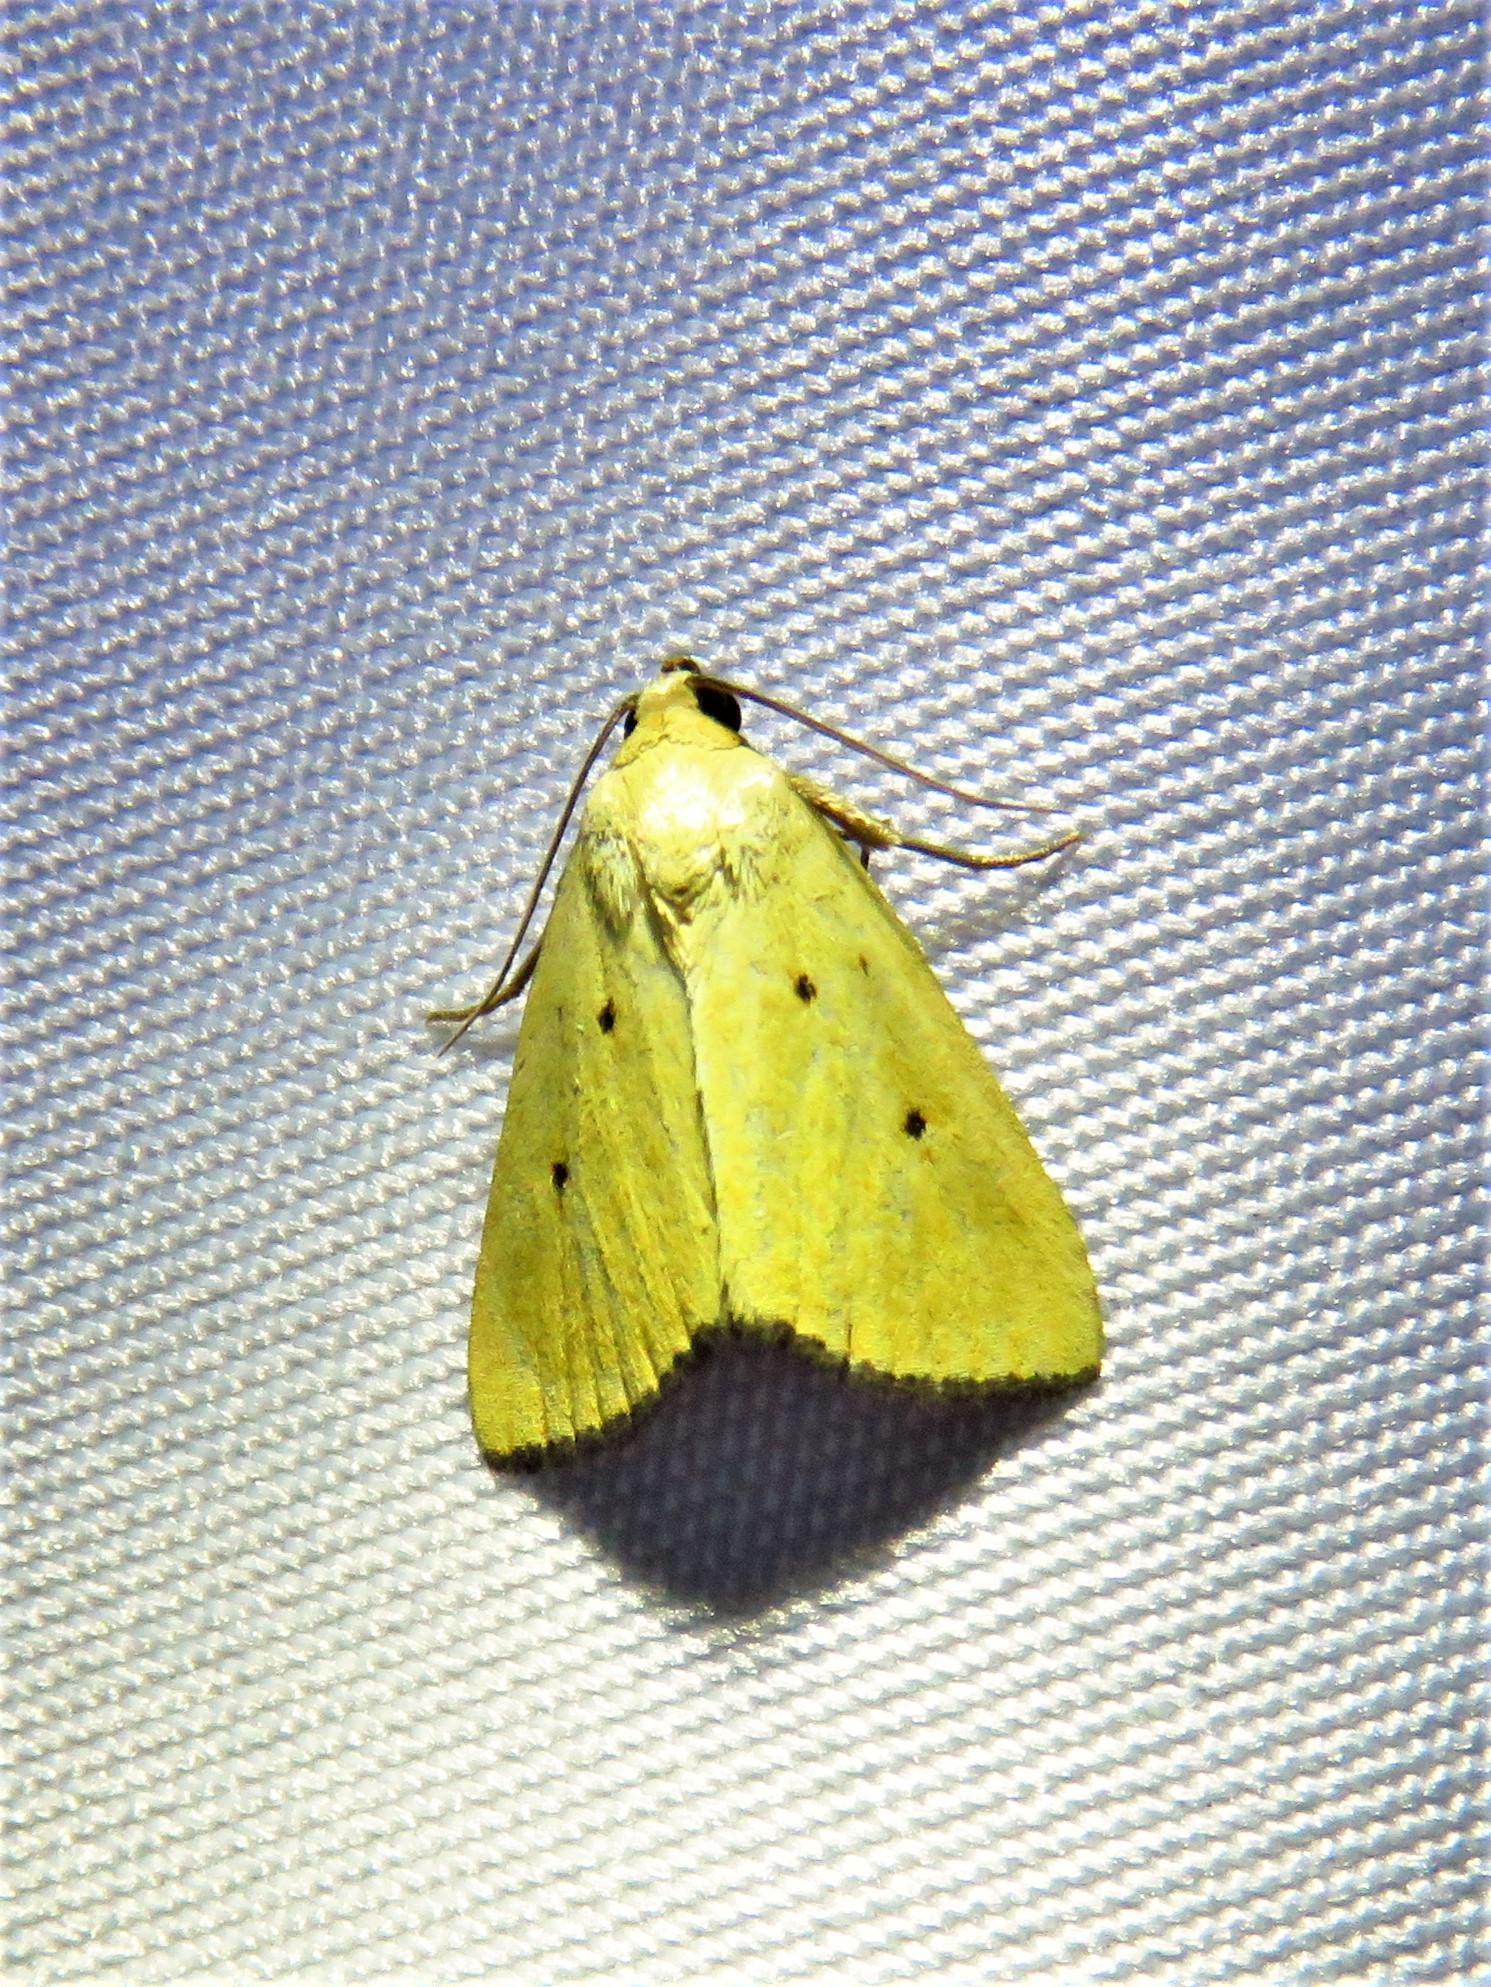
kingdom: Animalia
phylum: Arthropoda
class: Insecta
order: Lepidoptera
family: Noctuidae
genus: Marimatha
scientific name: Marimatha nigrofimbria
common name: Black-bordered lemon moth
